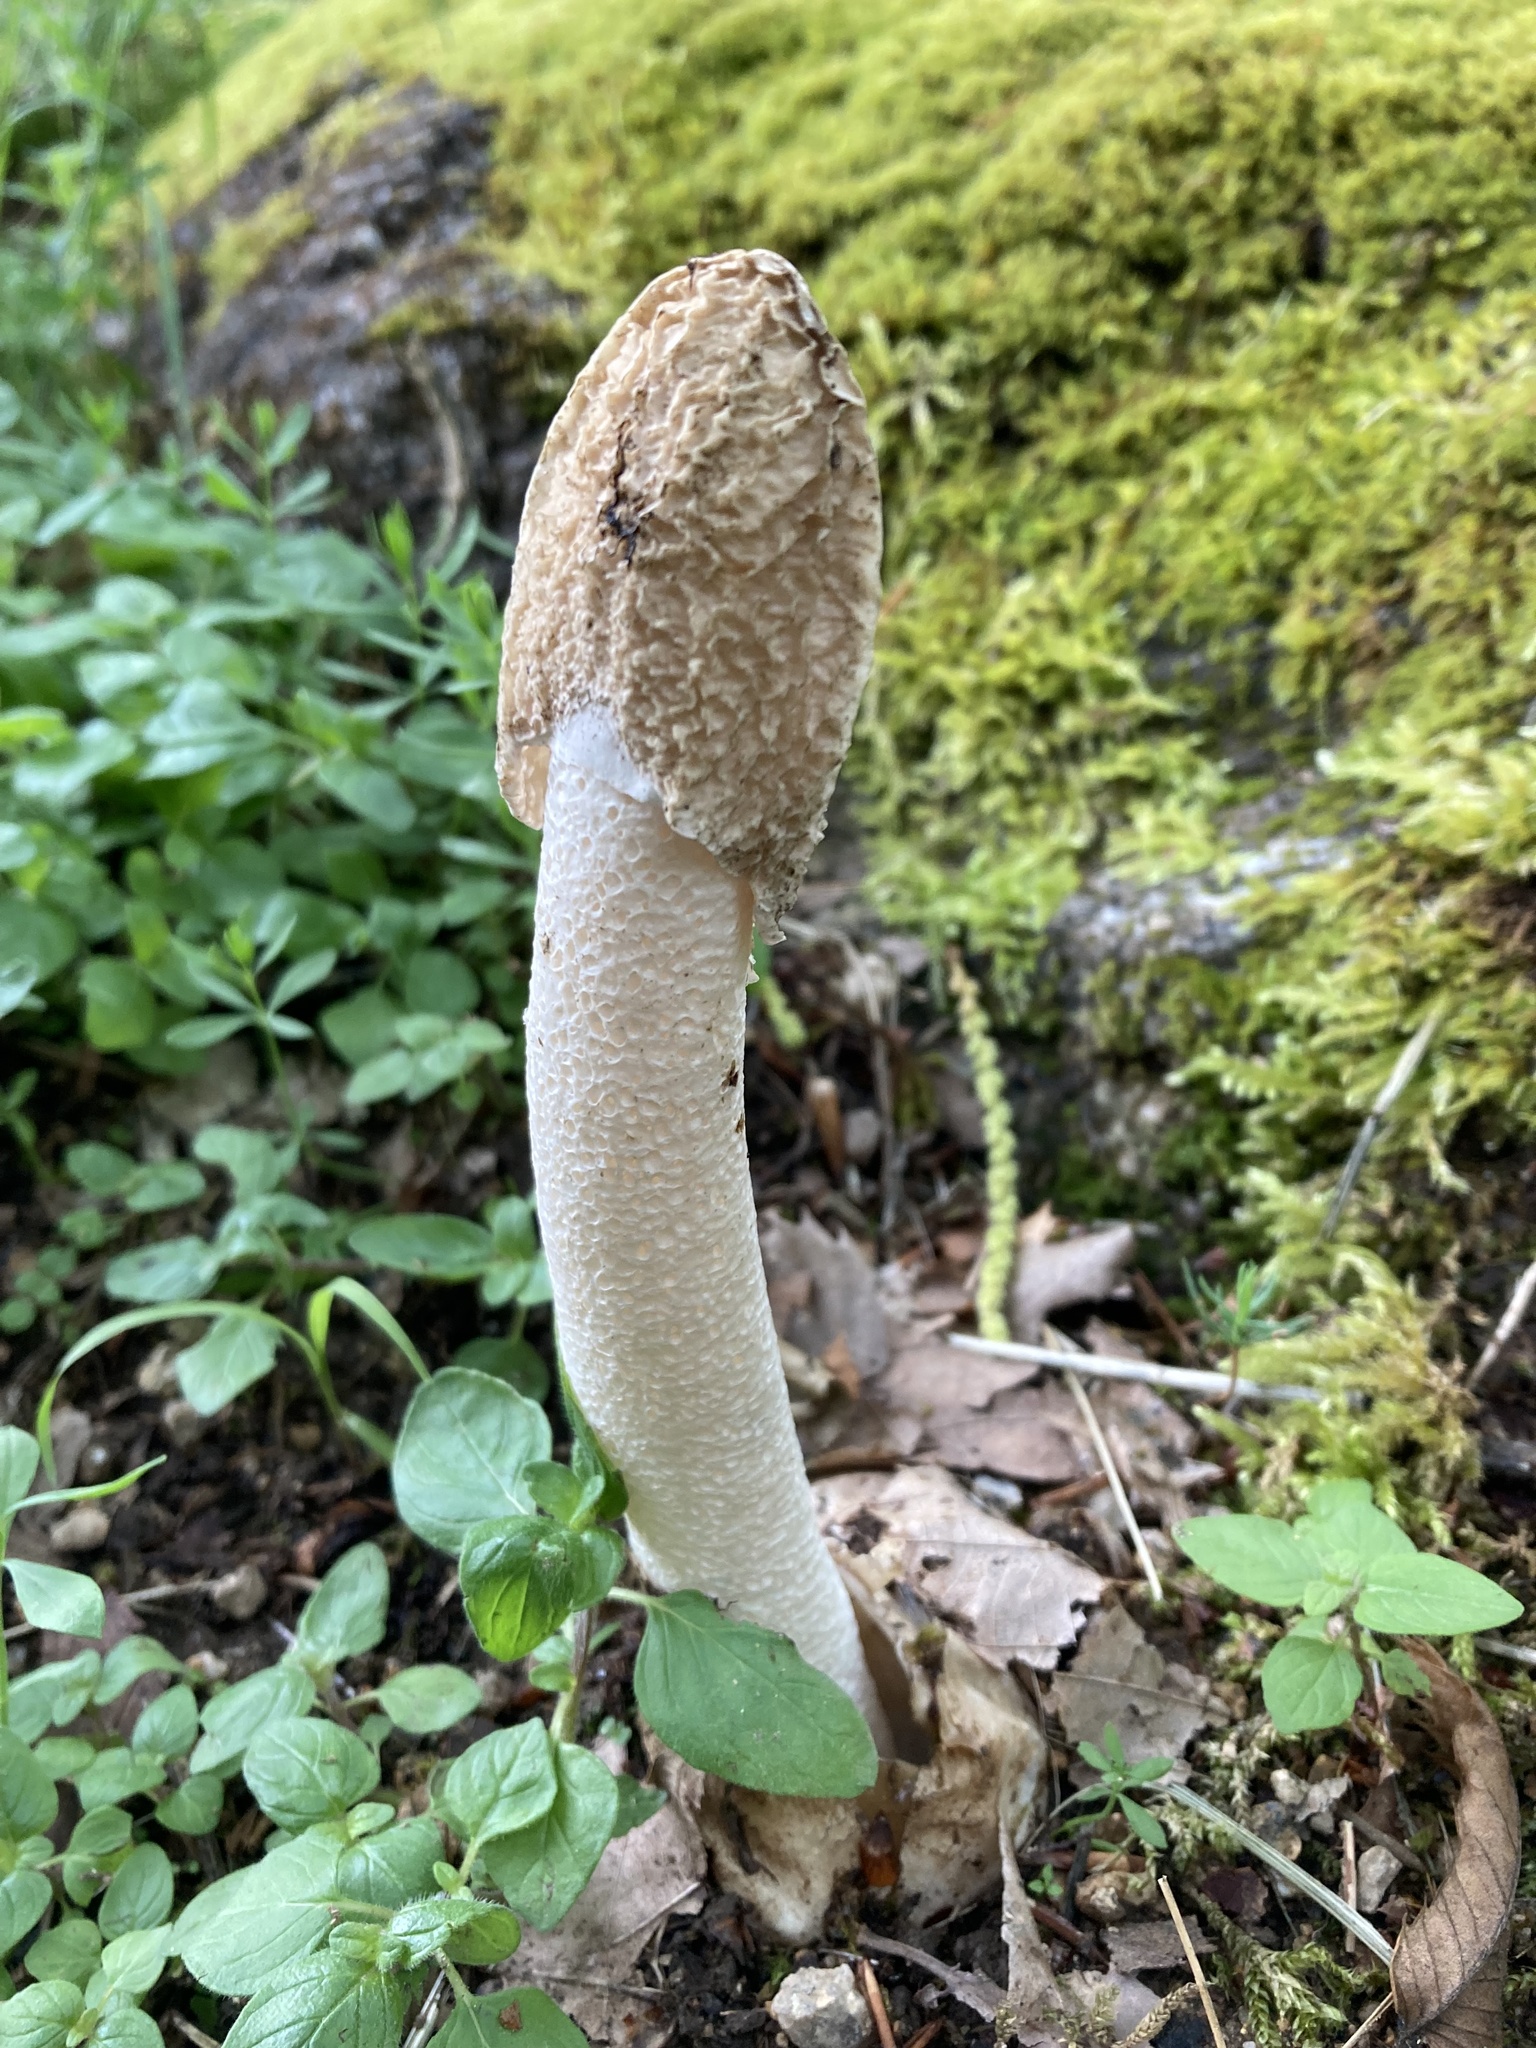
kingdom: Fungi
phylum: Basidiomycota
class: Agaricomycetes
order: Phallales
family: Phallaceae
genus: Phallus
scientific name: Phallus impudicus
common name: Common stinkhorn
